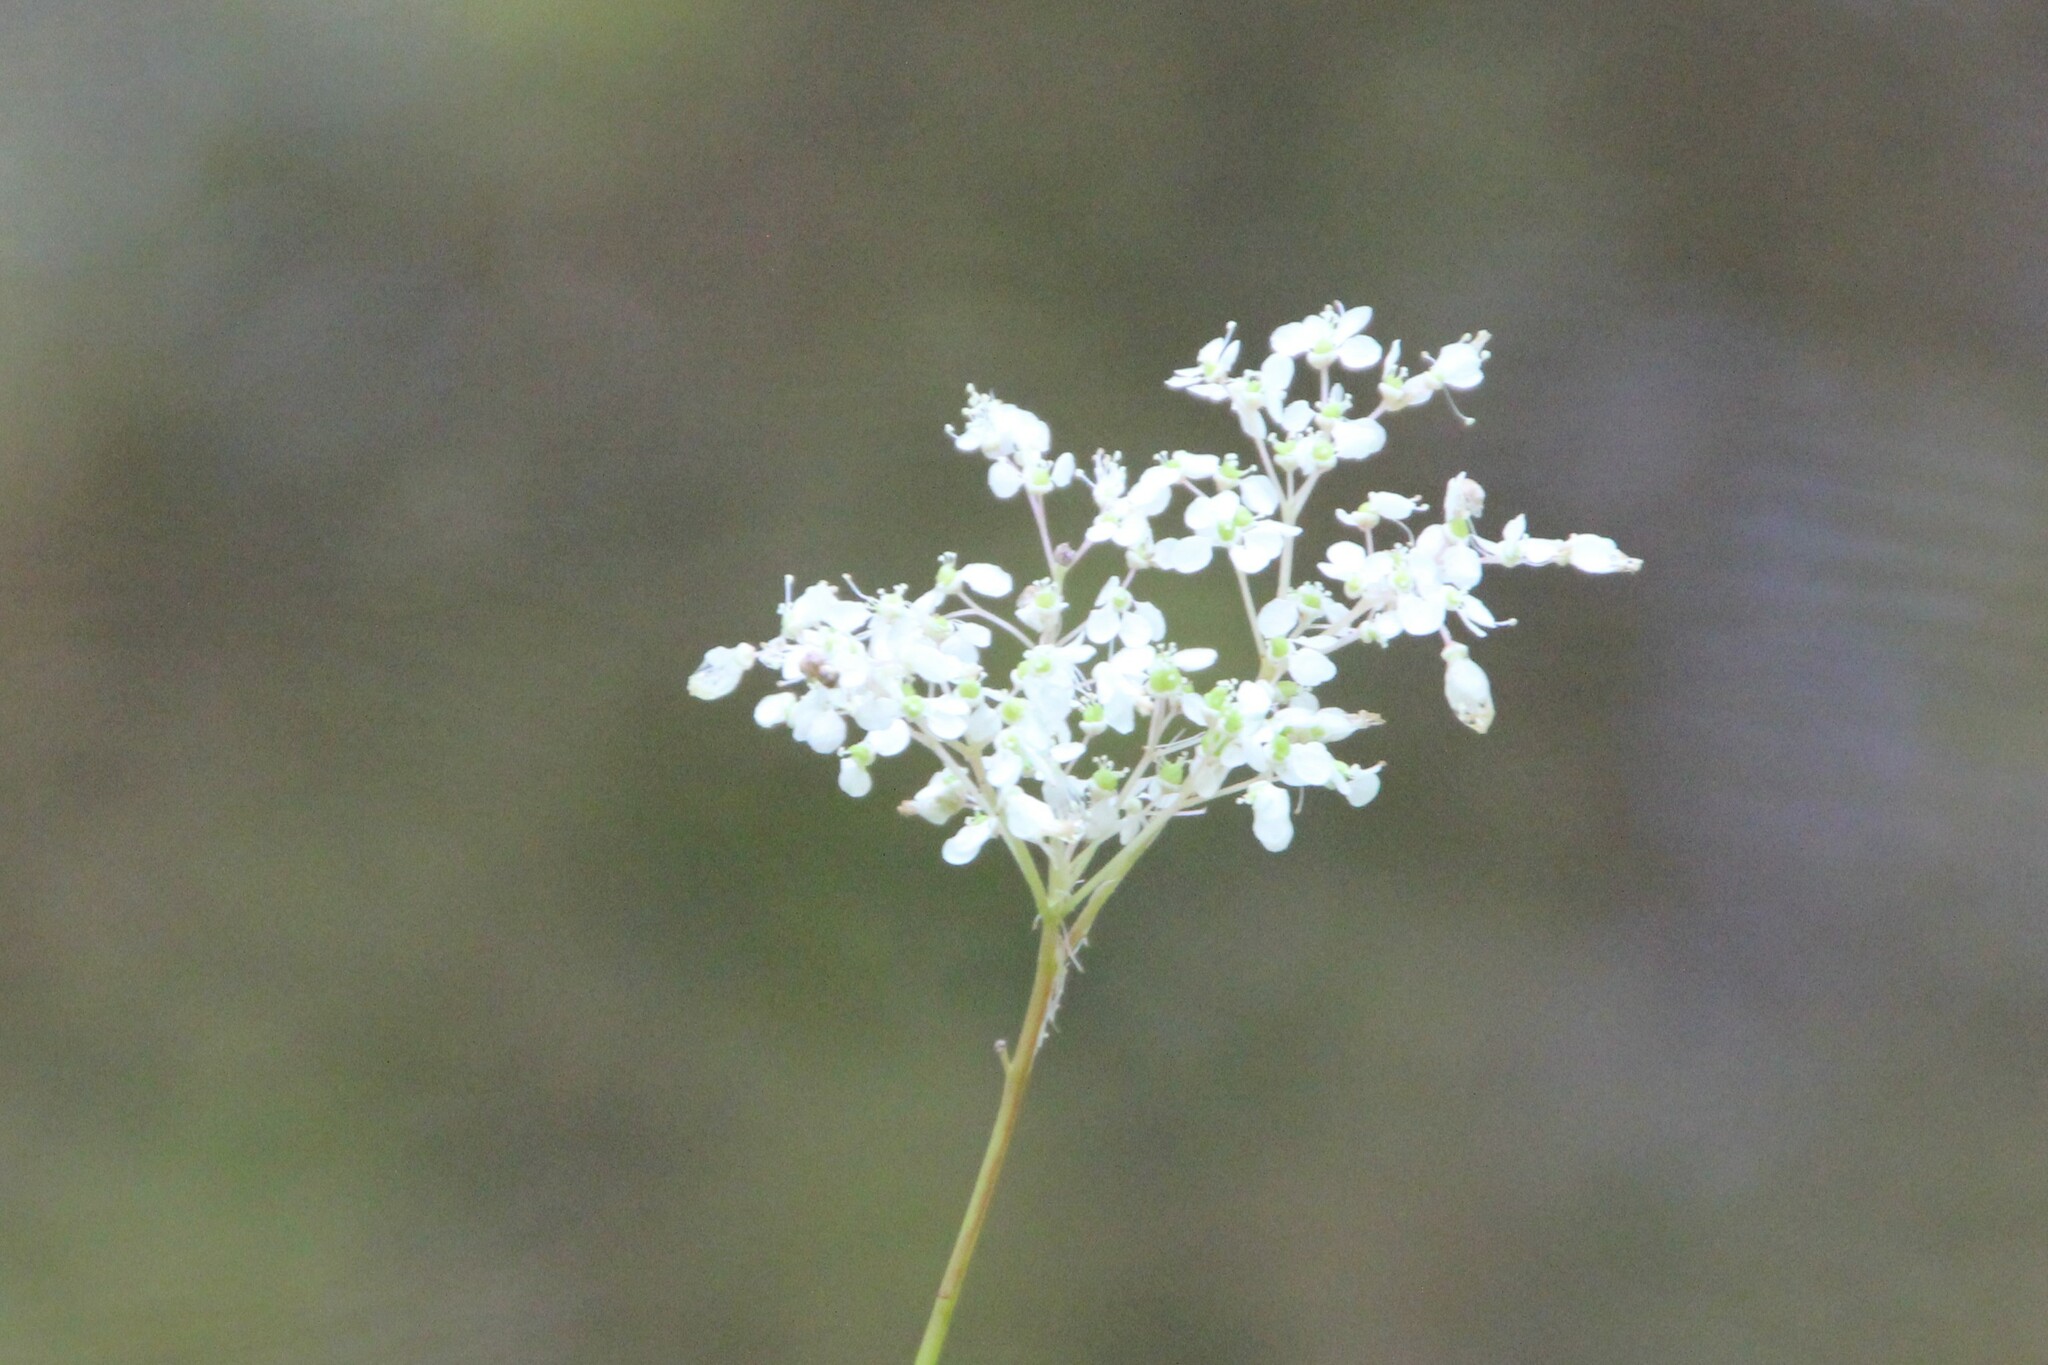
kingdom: Plantae
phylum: Tracheophyta
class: Magnoliopsida
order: Rosales
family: Rosaceae
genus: Filipendula
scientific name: Filipendula ulmaria
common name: Meadowsweet
